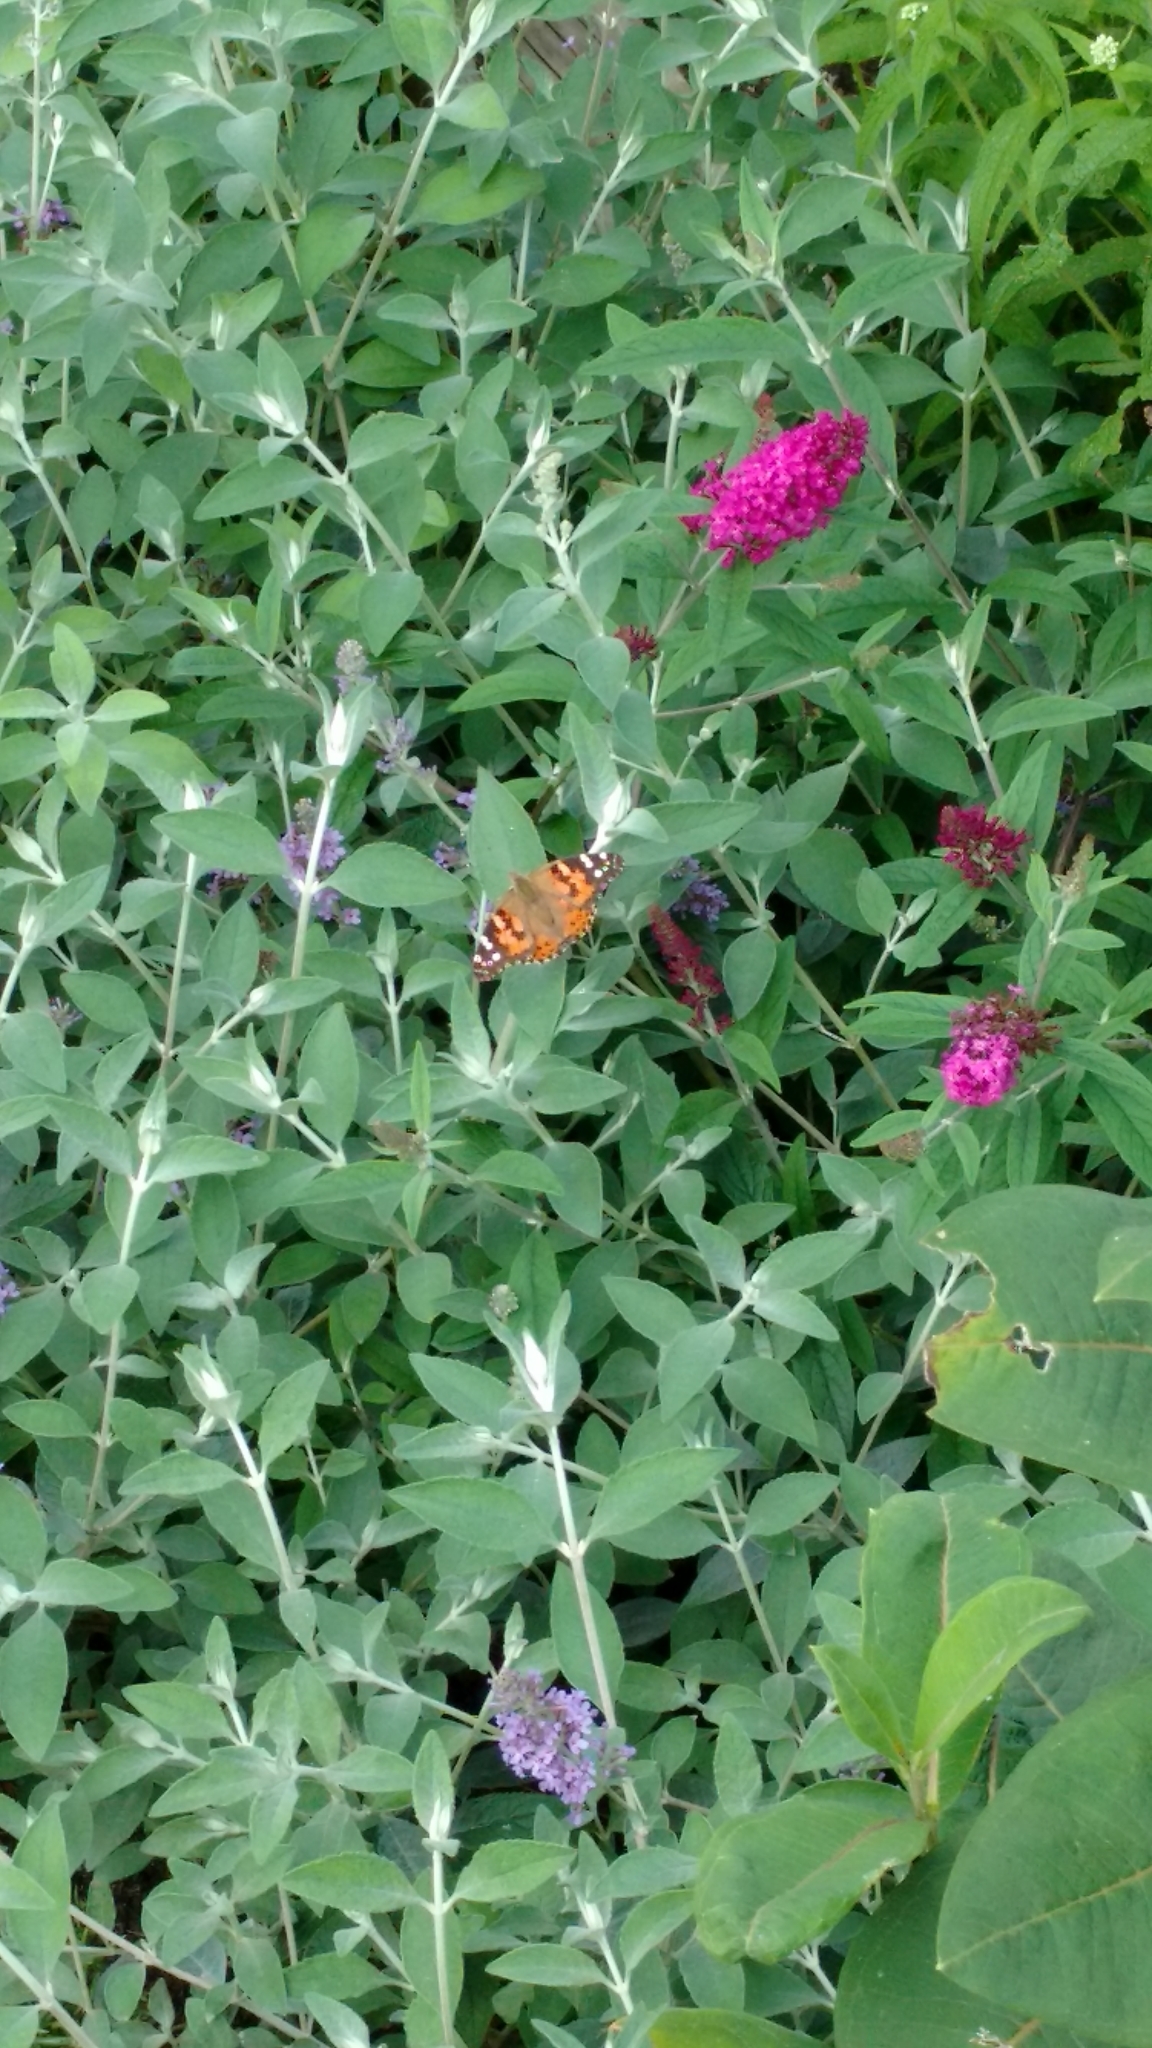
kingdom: Animalia
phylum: Arthropoda
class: Insecta
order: Lepidoptera
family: Nymphalidae
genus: Vanessa
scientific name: Vanessa cardui
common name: Painted lady
